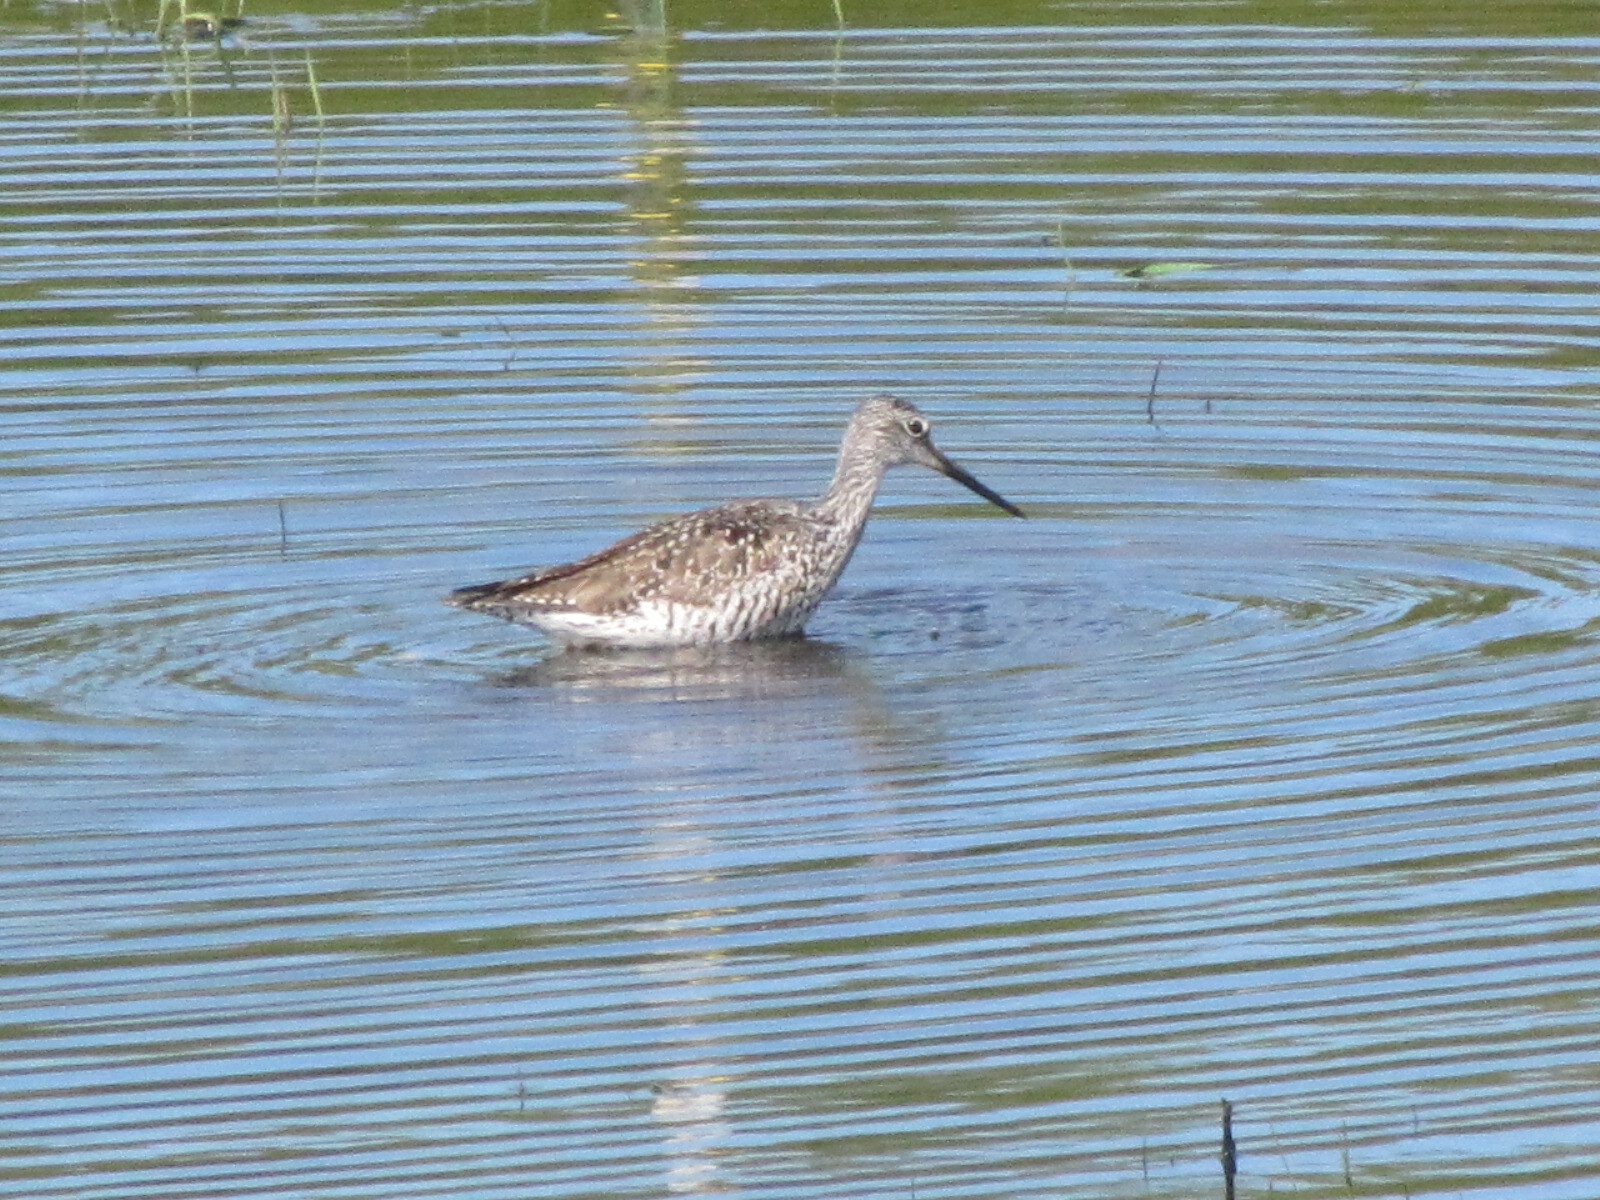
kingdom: Animalia
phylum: Chordata
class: Aves
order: Charadriiformes
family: Scolopacidae
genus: Tringa
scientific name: Tringa melanoleuca
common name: Greater yellowlegs
